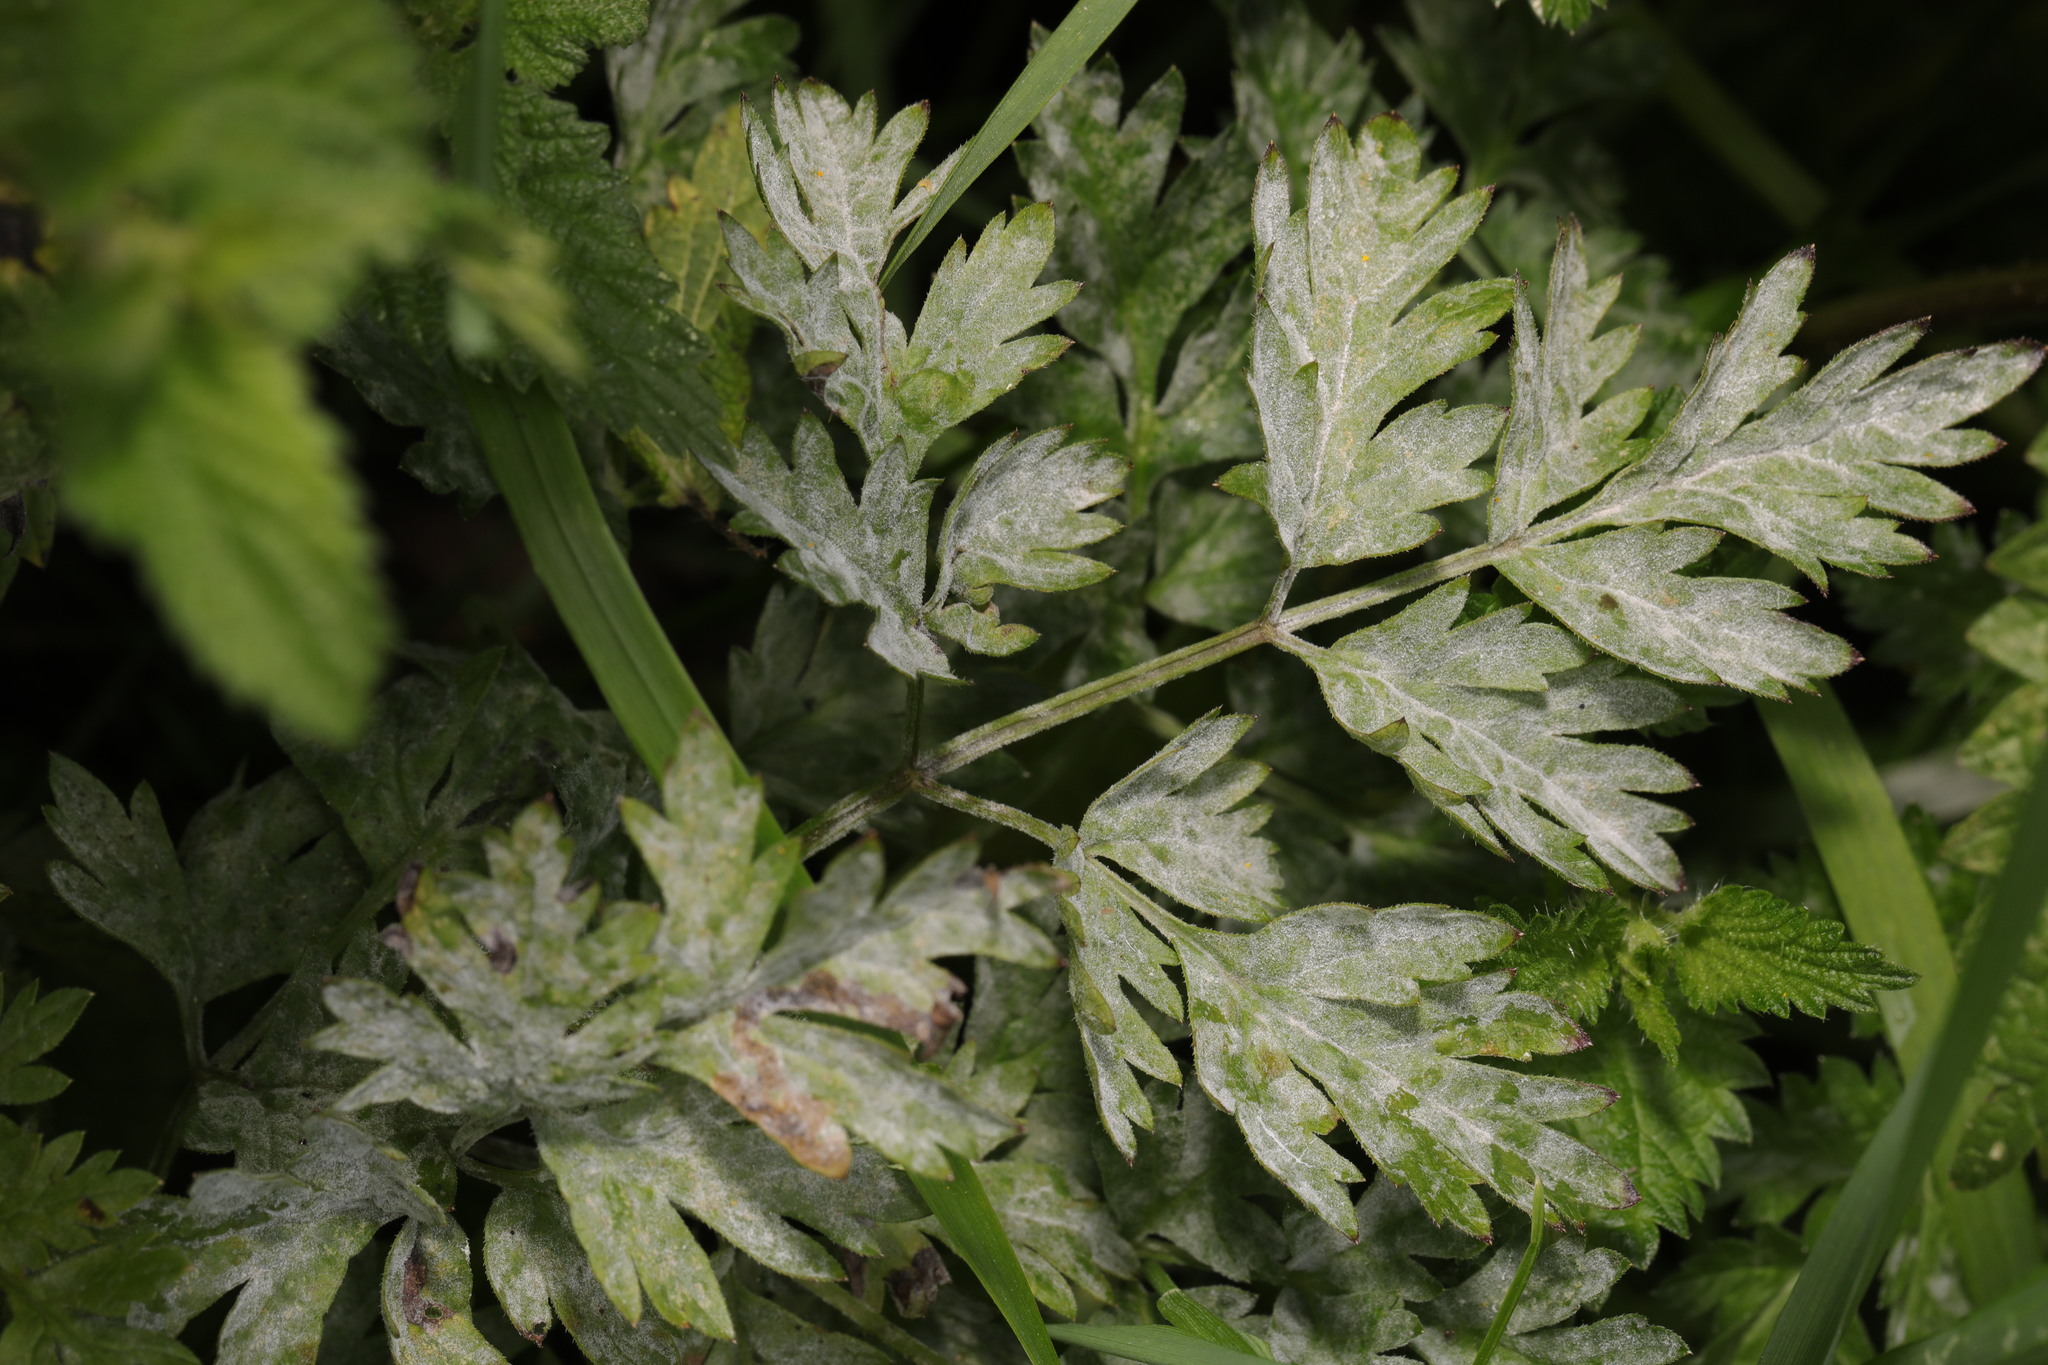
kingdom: Fungi
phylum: Ascomycota
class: Leotiomycetes
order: Helotiales
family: Erysiphaceae
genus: Erysiphe
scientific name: Erysiphe heraclei
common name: Umbellifer mildew
